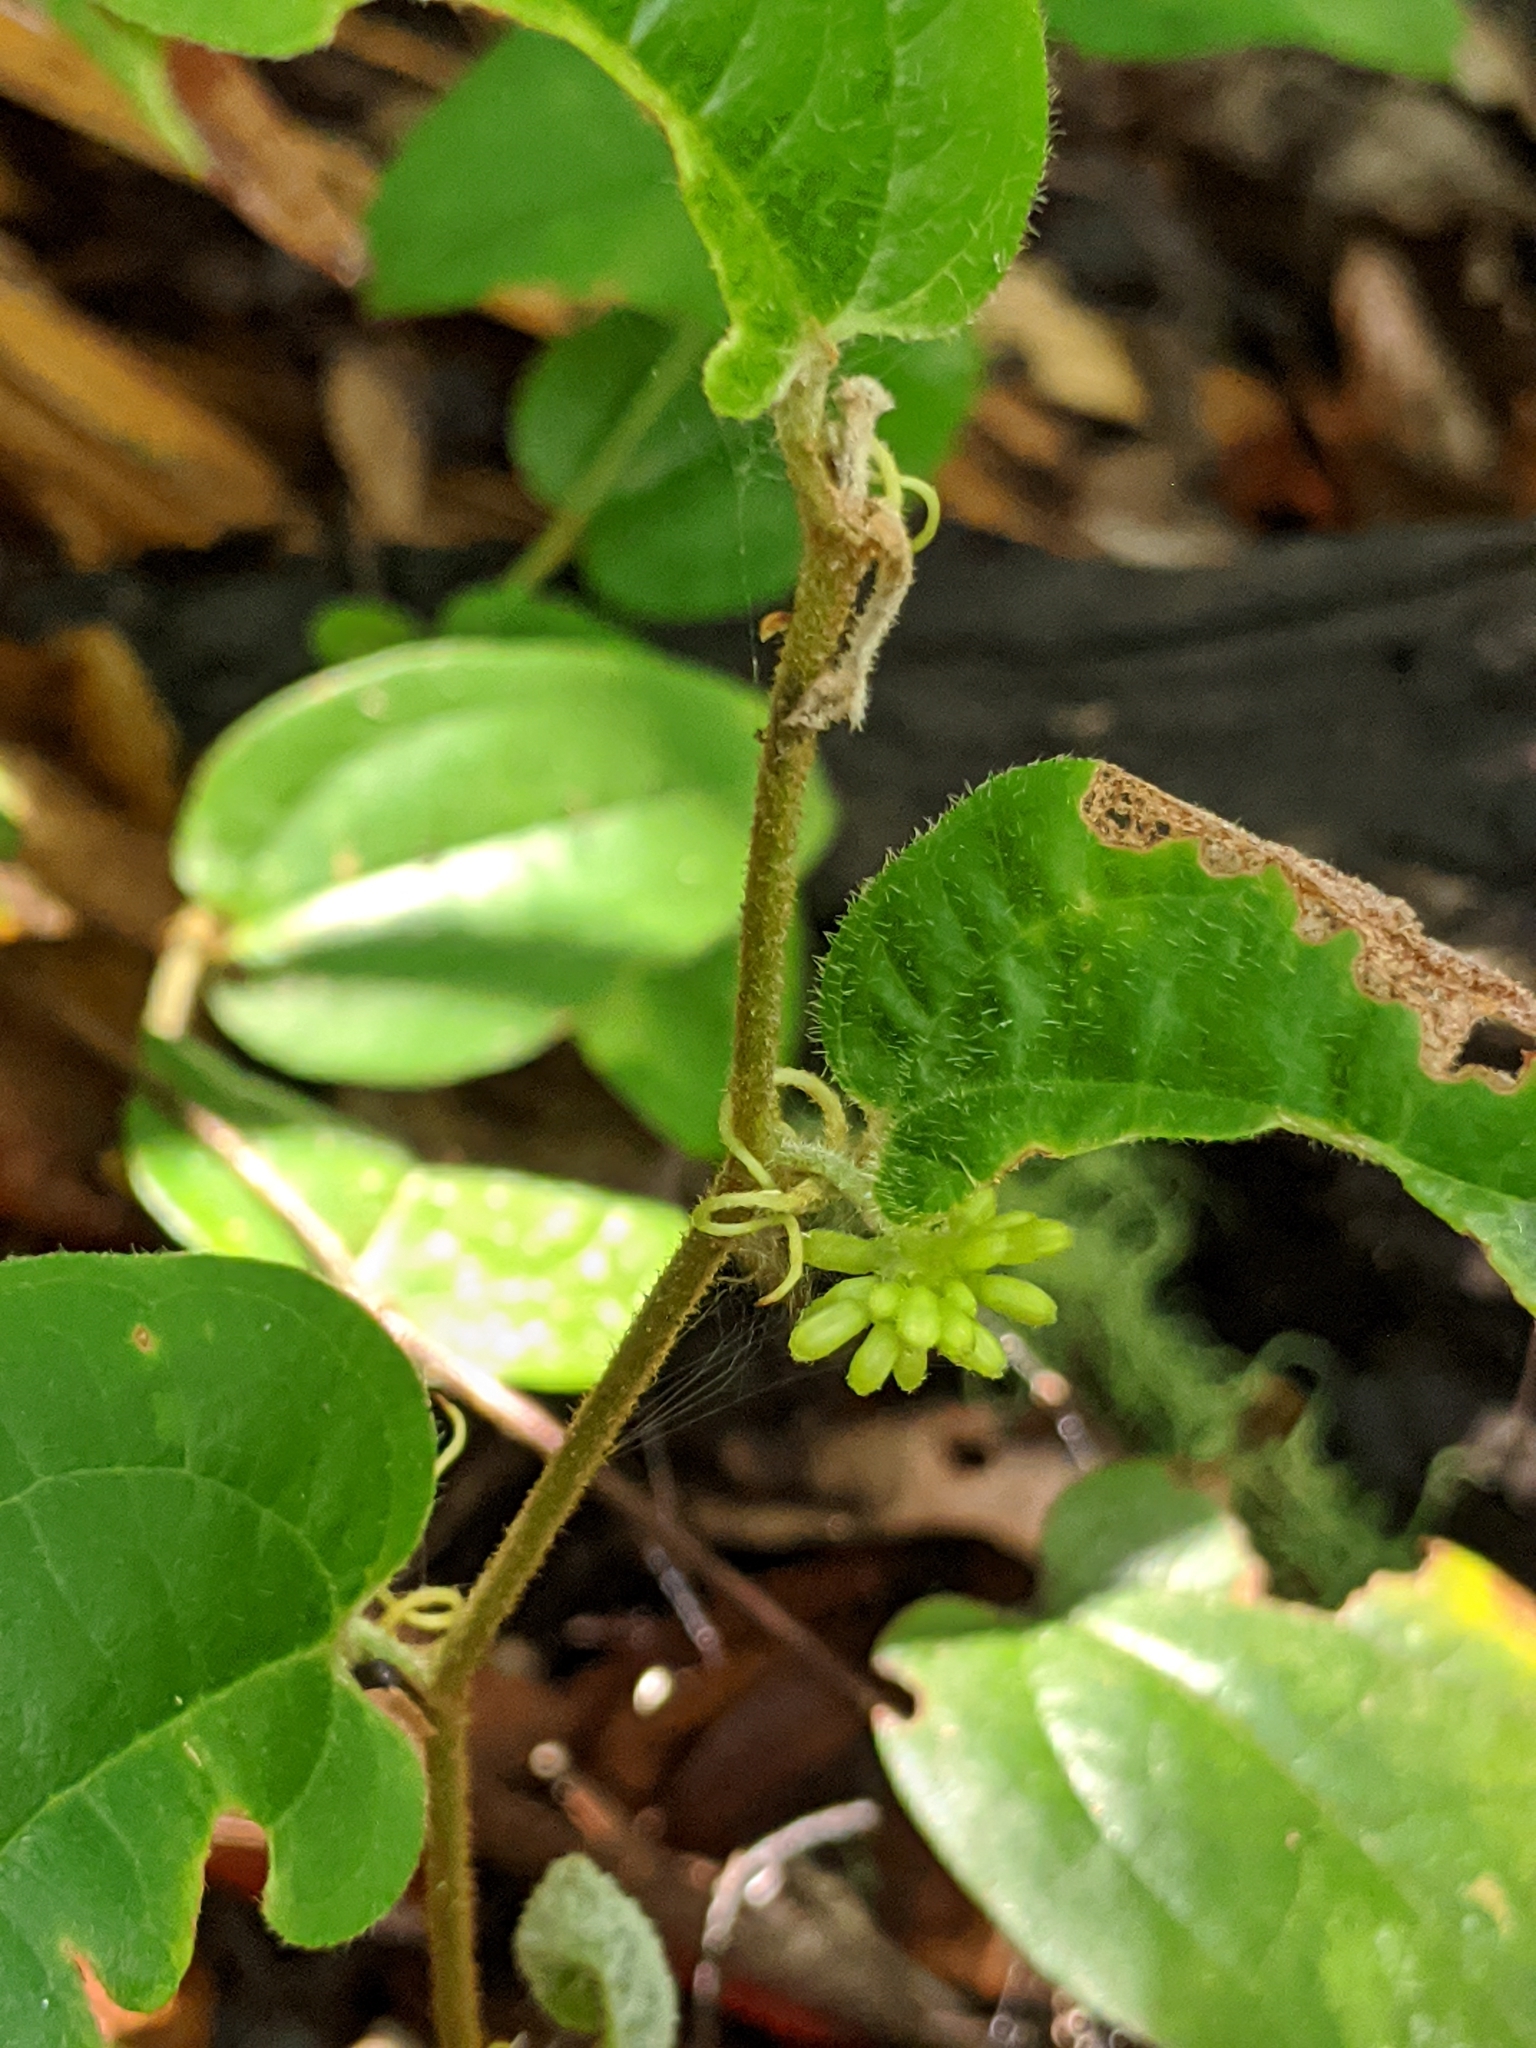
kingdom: Plantae
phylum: Tracheophyta
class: Liliopsida
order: Liliales
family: Smilacaceae
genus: Smilax
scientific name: Smilax pumila
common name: Sarsaparilla-vine
